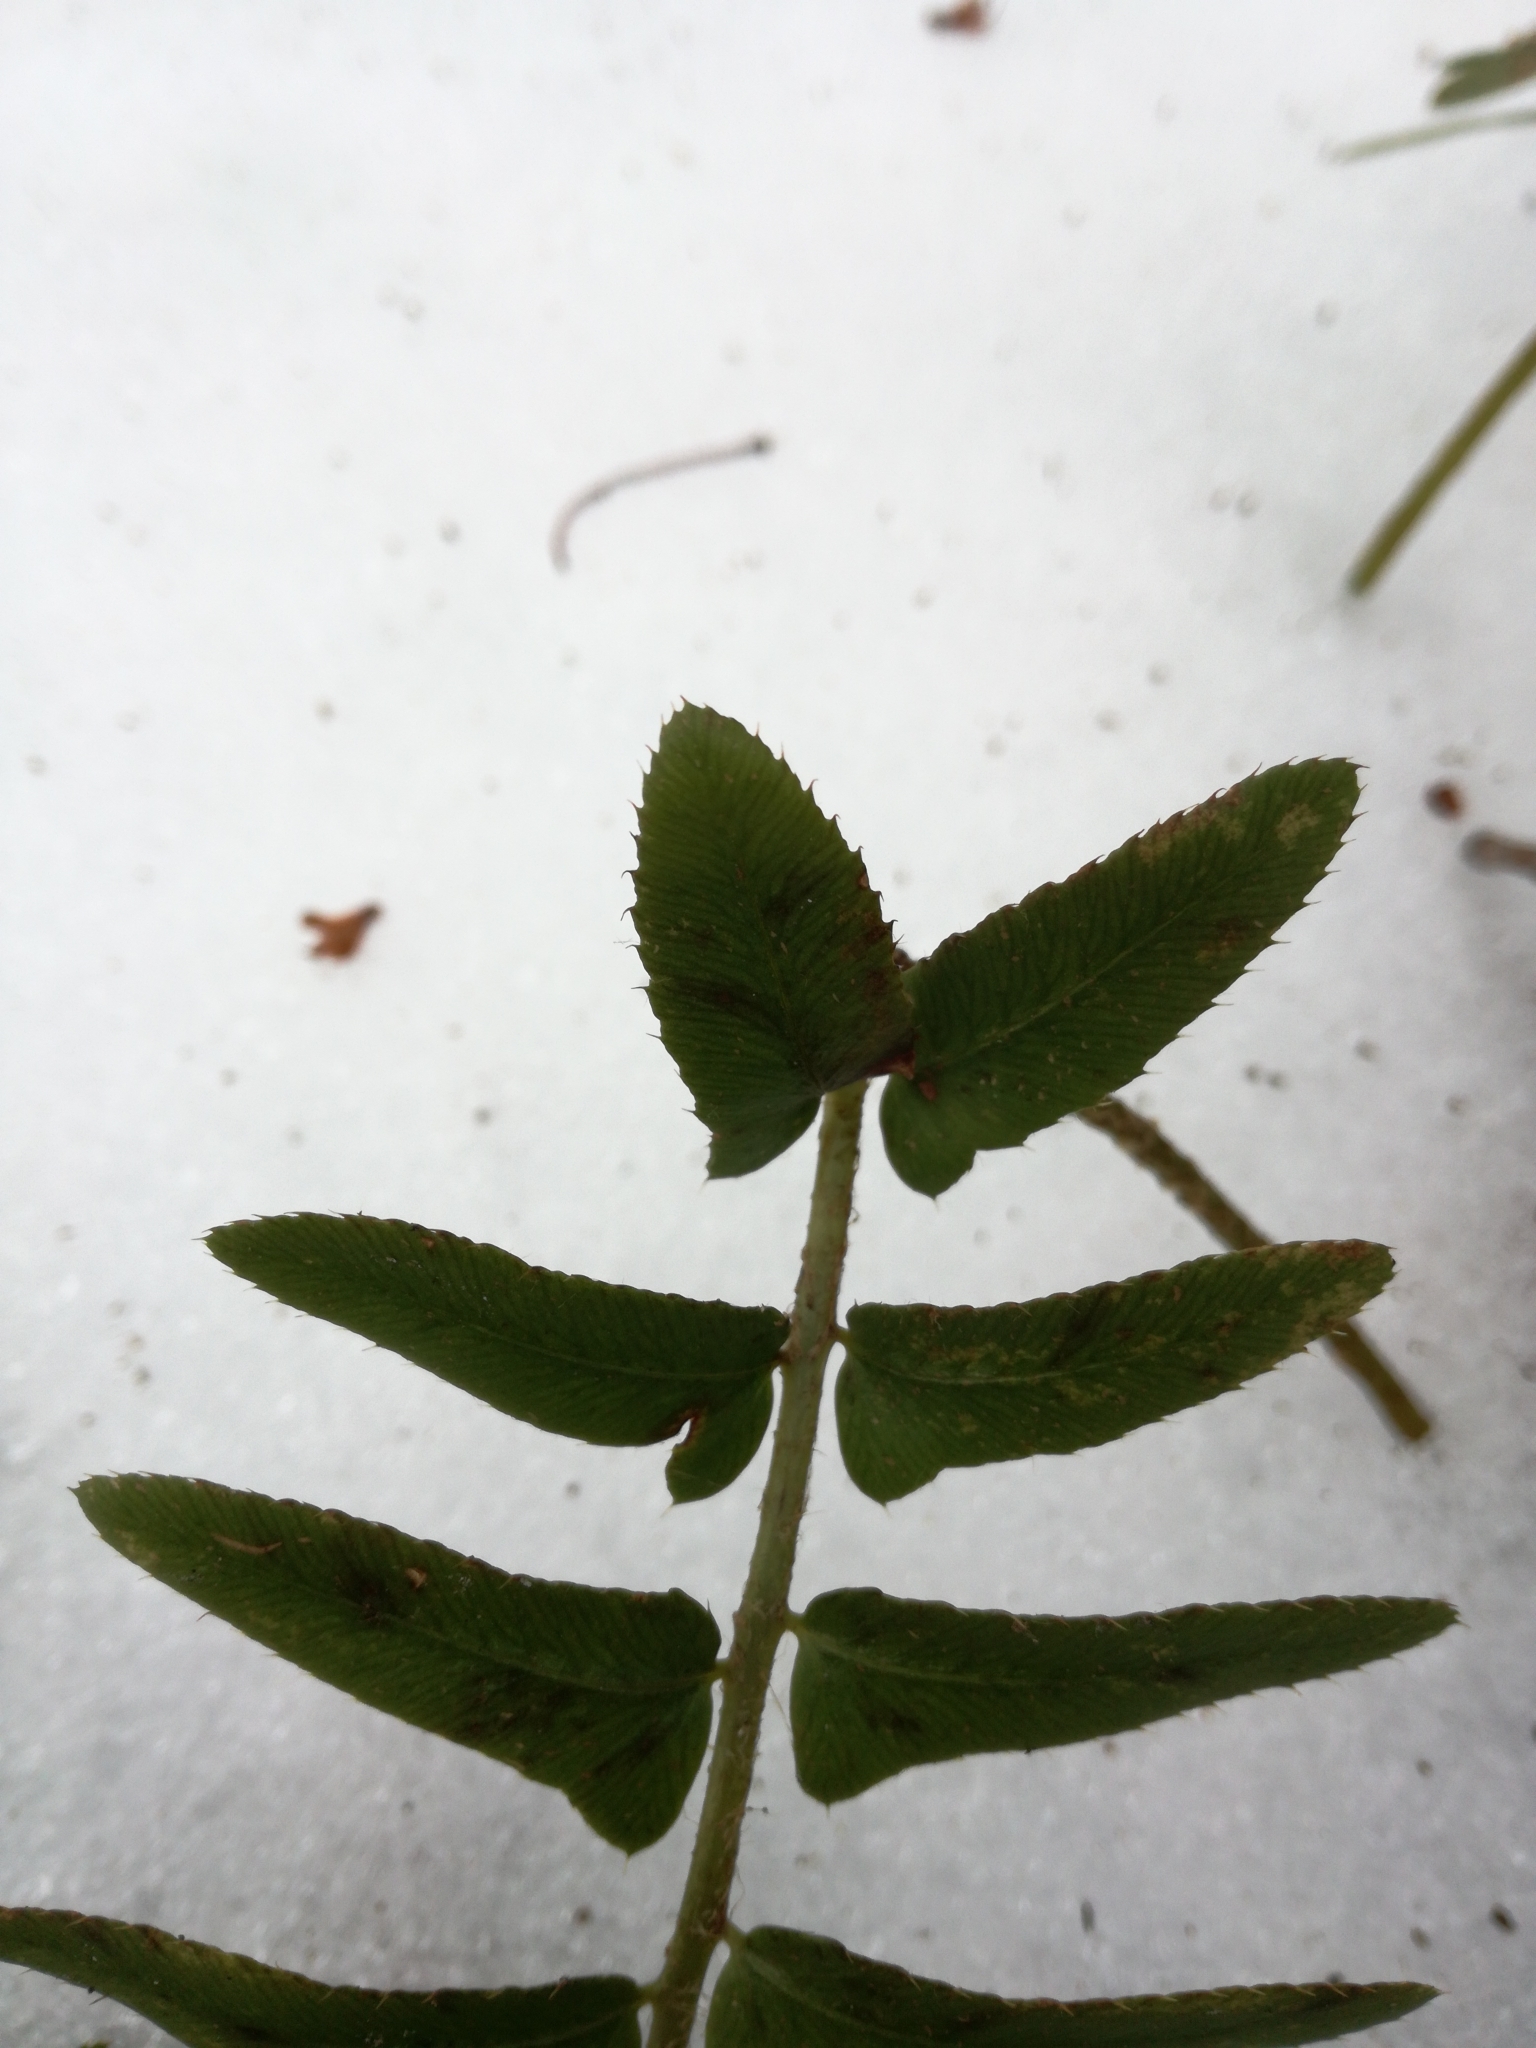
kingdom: Plantae
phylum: Tracheophyta
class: Polypodiopsida
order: Polypodiales
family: Dryopteridaceae
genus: Polystichum
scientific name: Polystichum acrostichoides
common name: Christmas fern
